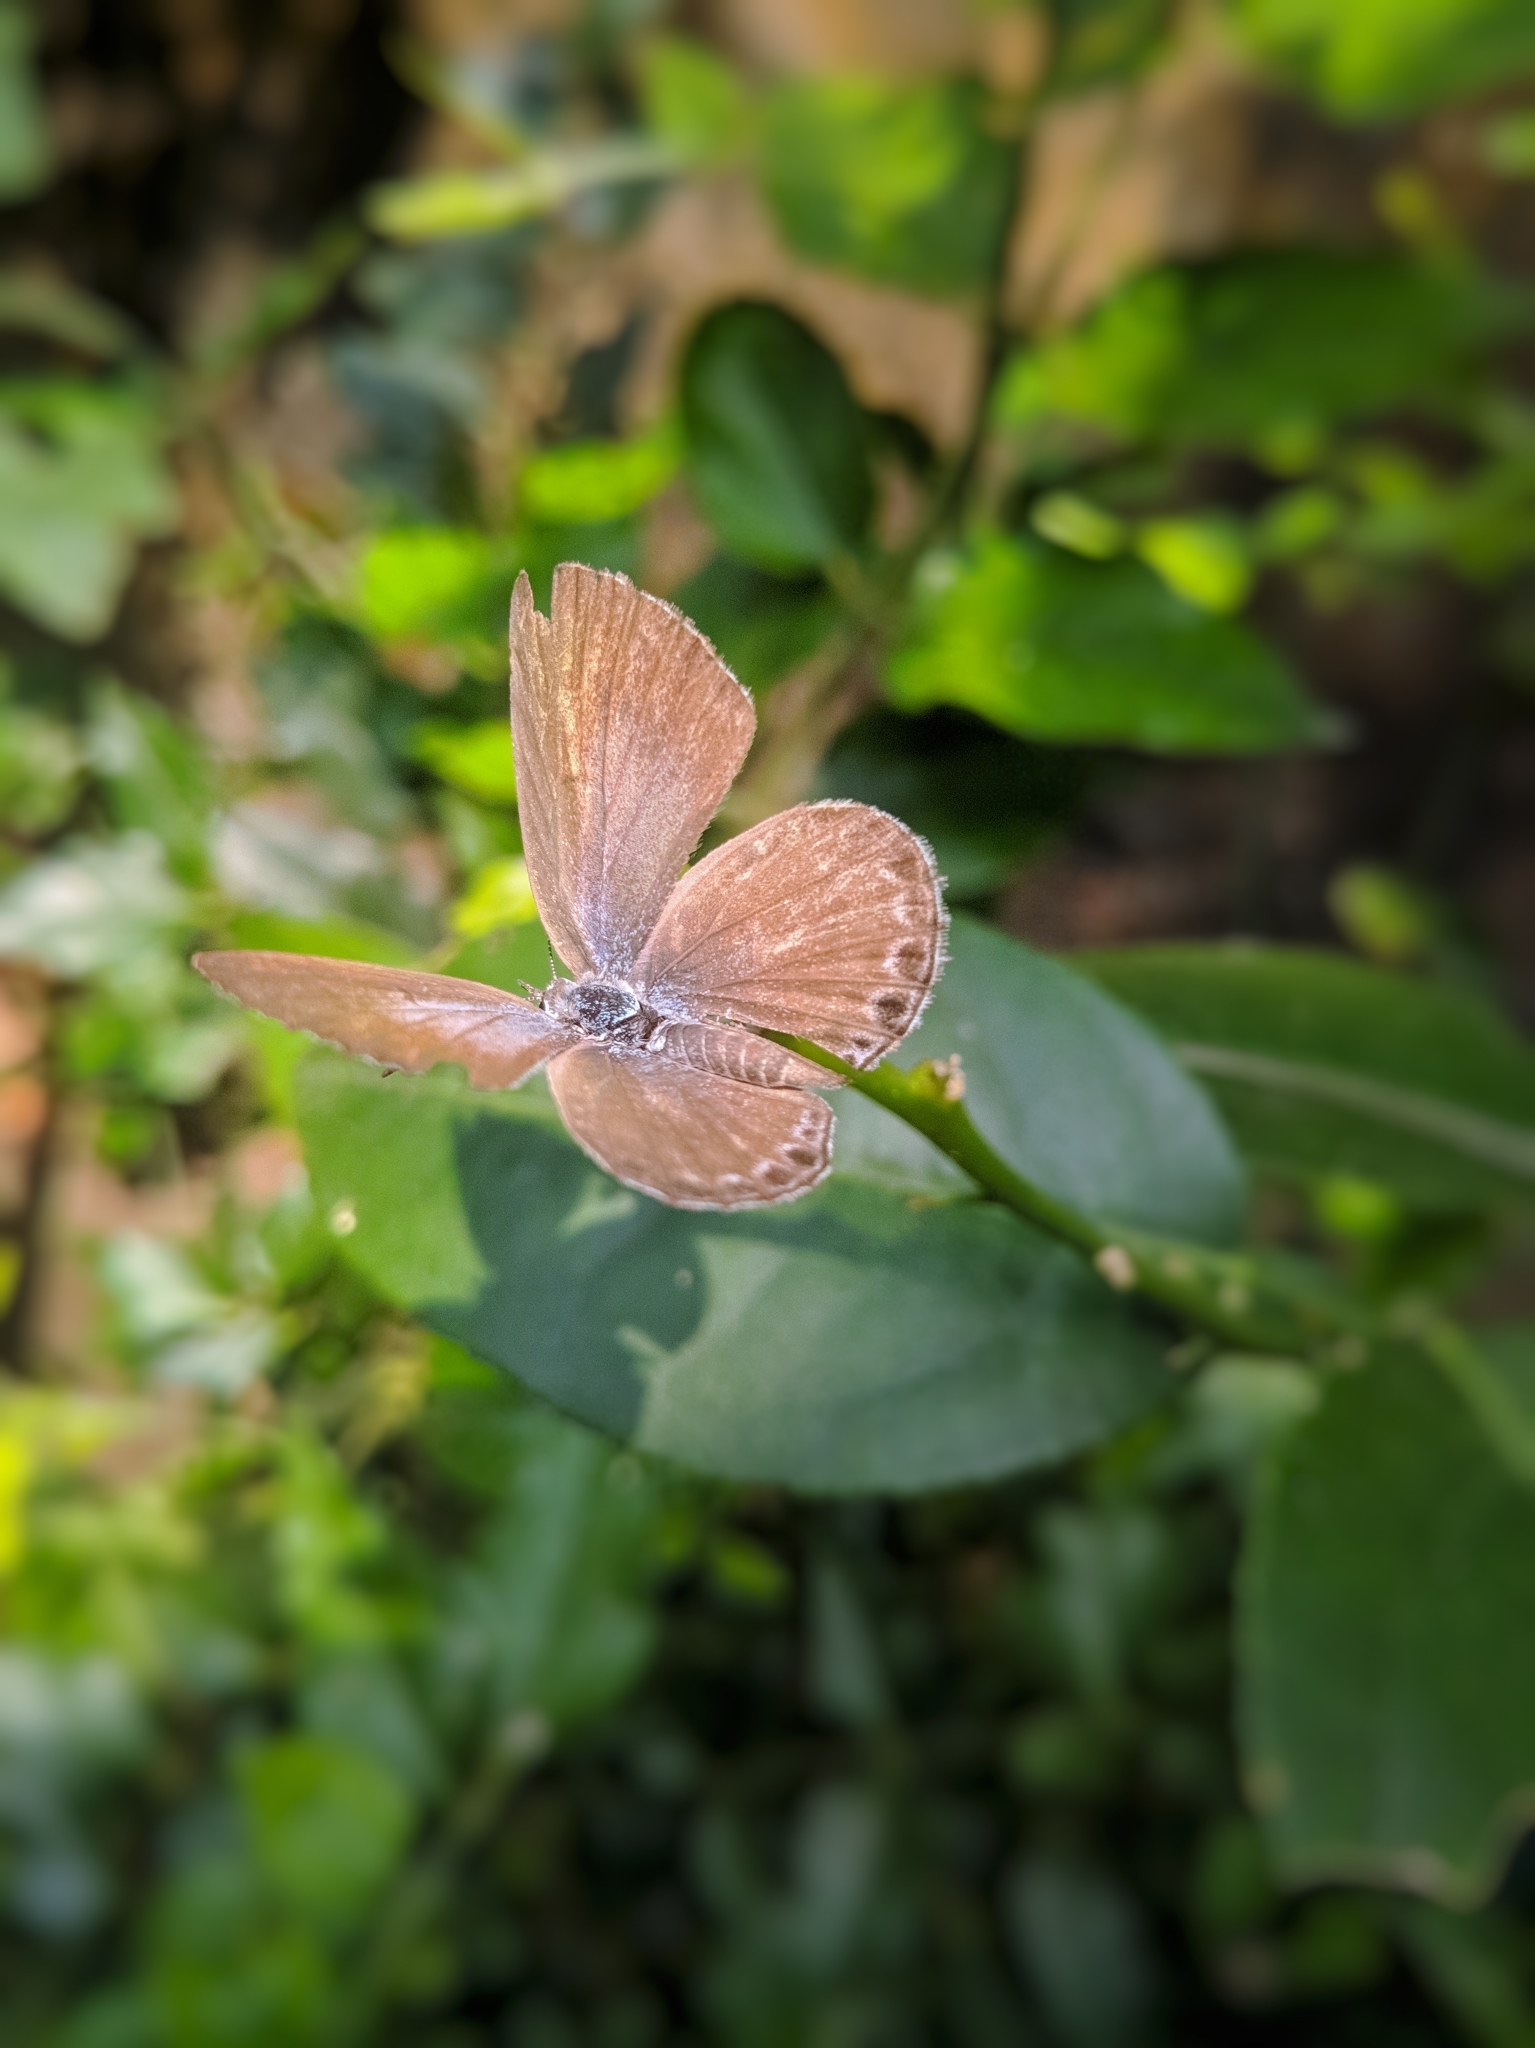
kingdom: Animalia
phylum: Arthropoda
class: Insecta
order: Lepidoptera
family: Lycaenidae
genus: Chilades
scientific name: Chilades laius
